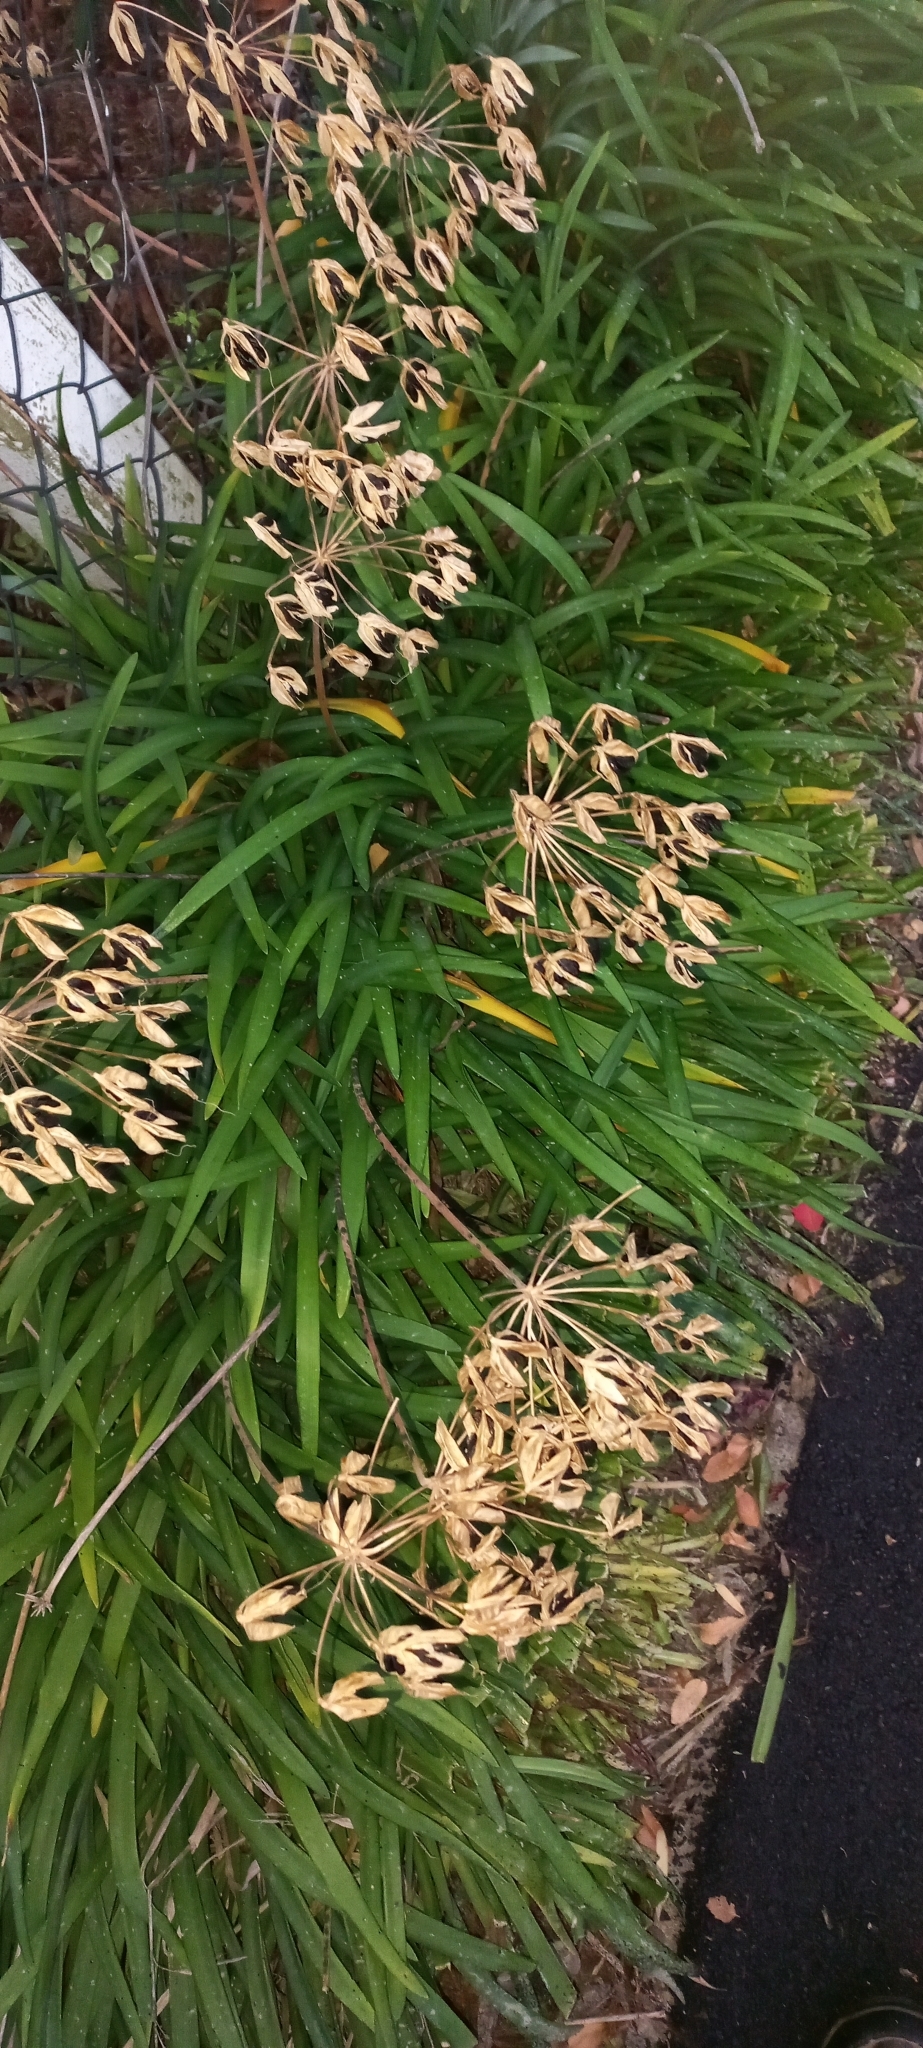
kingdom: Plantae
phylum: Tracheophyta
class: Liliopsida
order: Asparagales
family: Amaryllidaceae
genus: Agapanthus
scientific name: Agapanthus praecox
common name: African-lily
